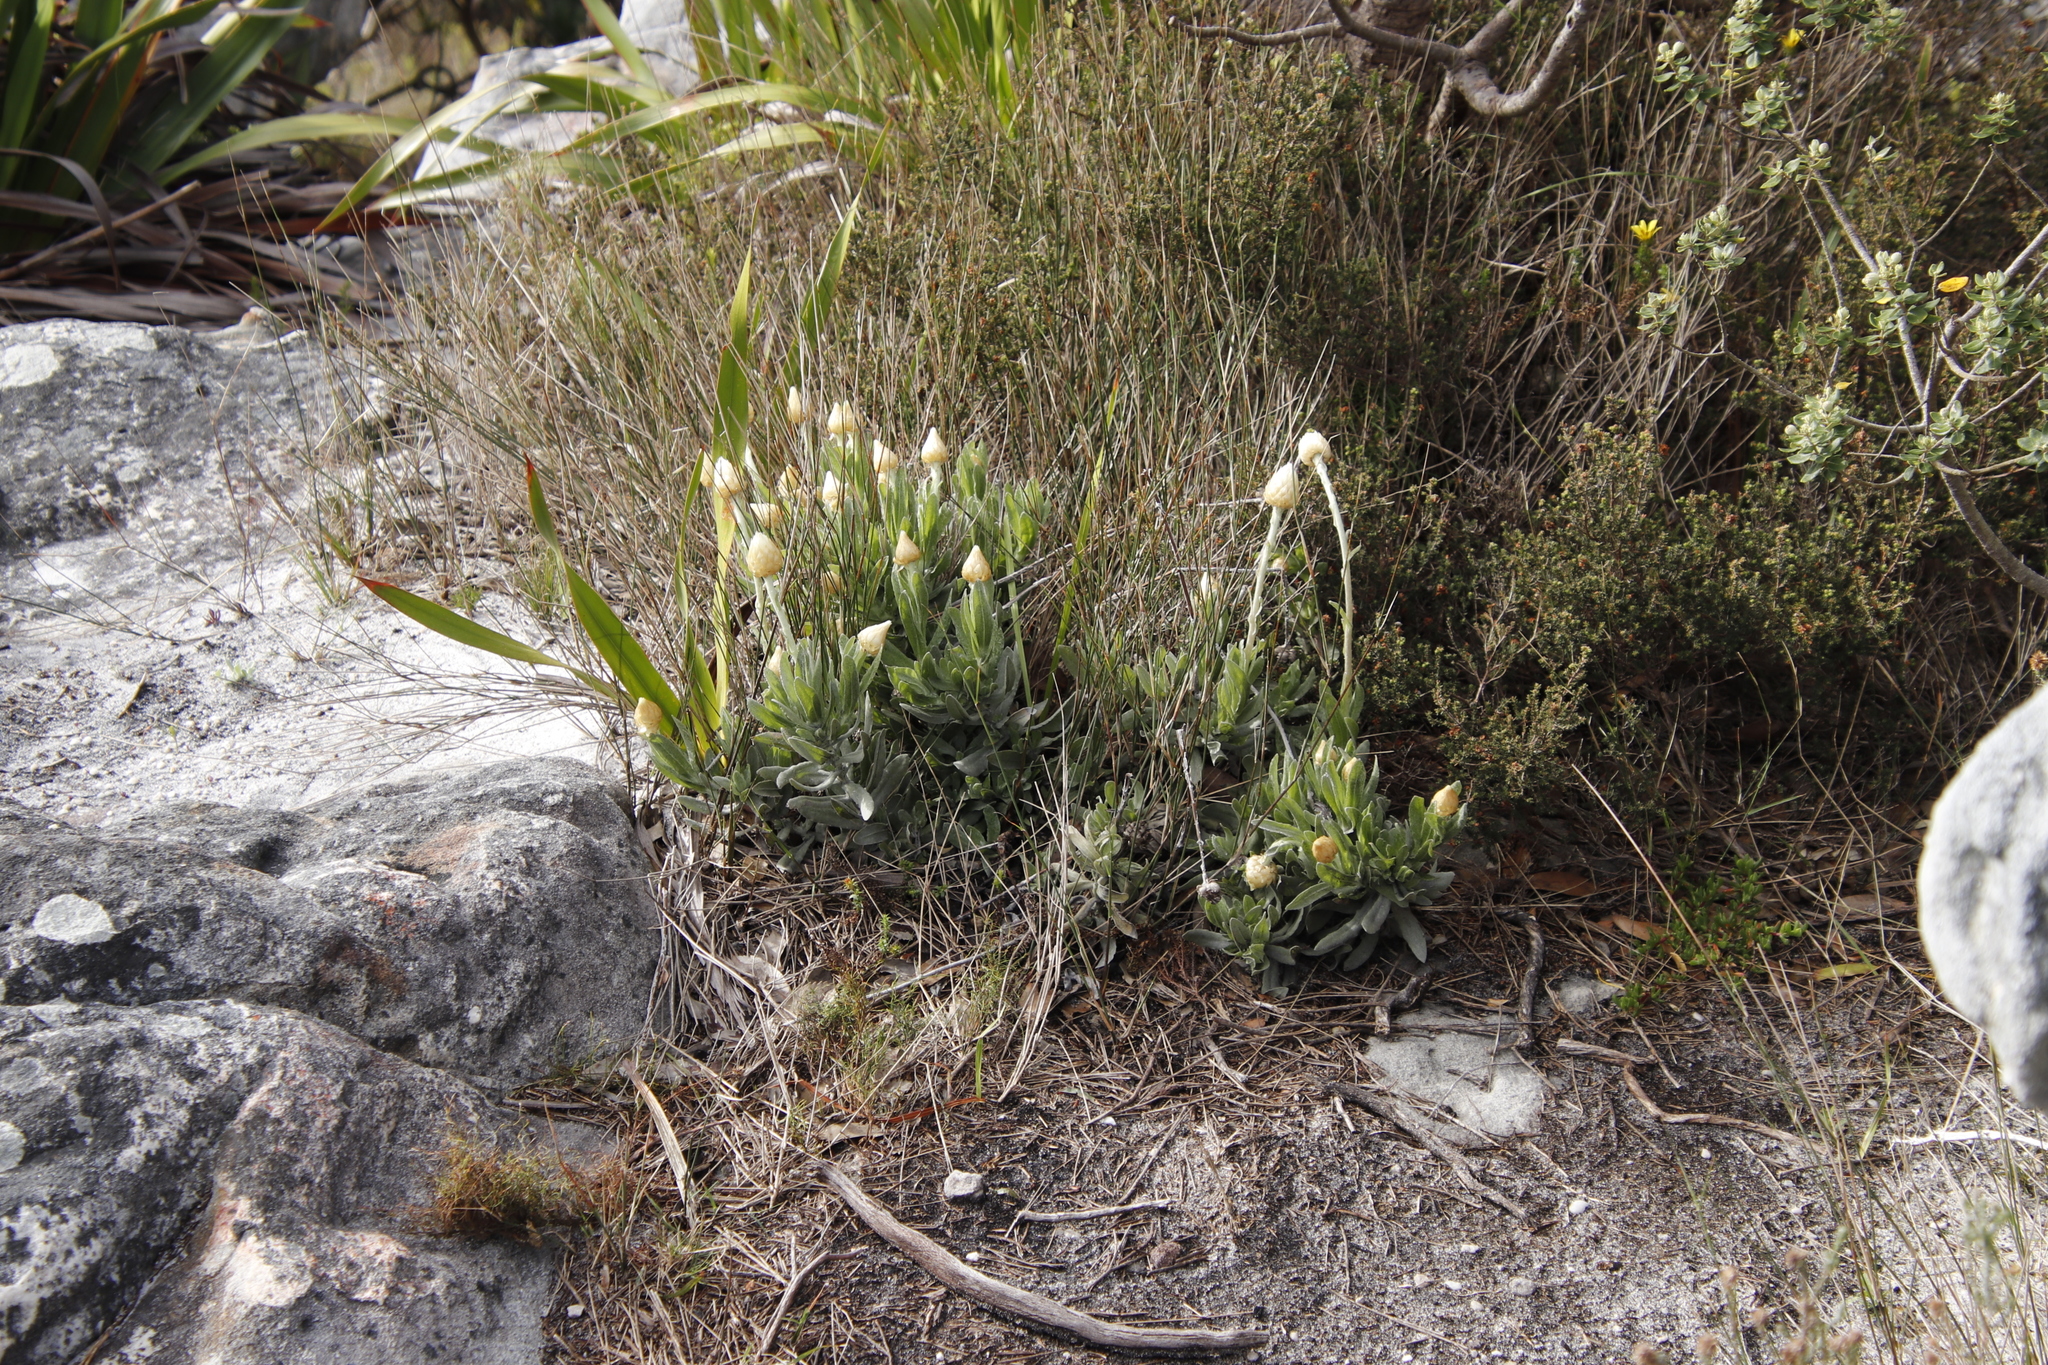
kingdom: Plantae
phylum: Tracheophyta
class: Magnoliopsida
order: Asterales
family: Asteraceae
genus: Syncarpha
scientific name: Syncarpha speciosissima
